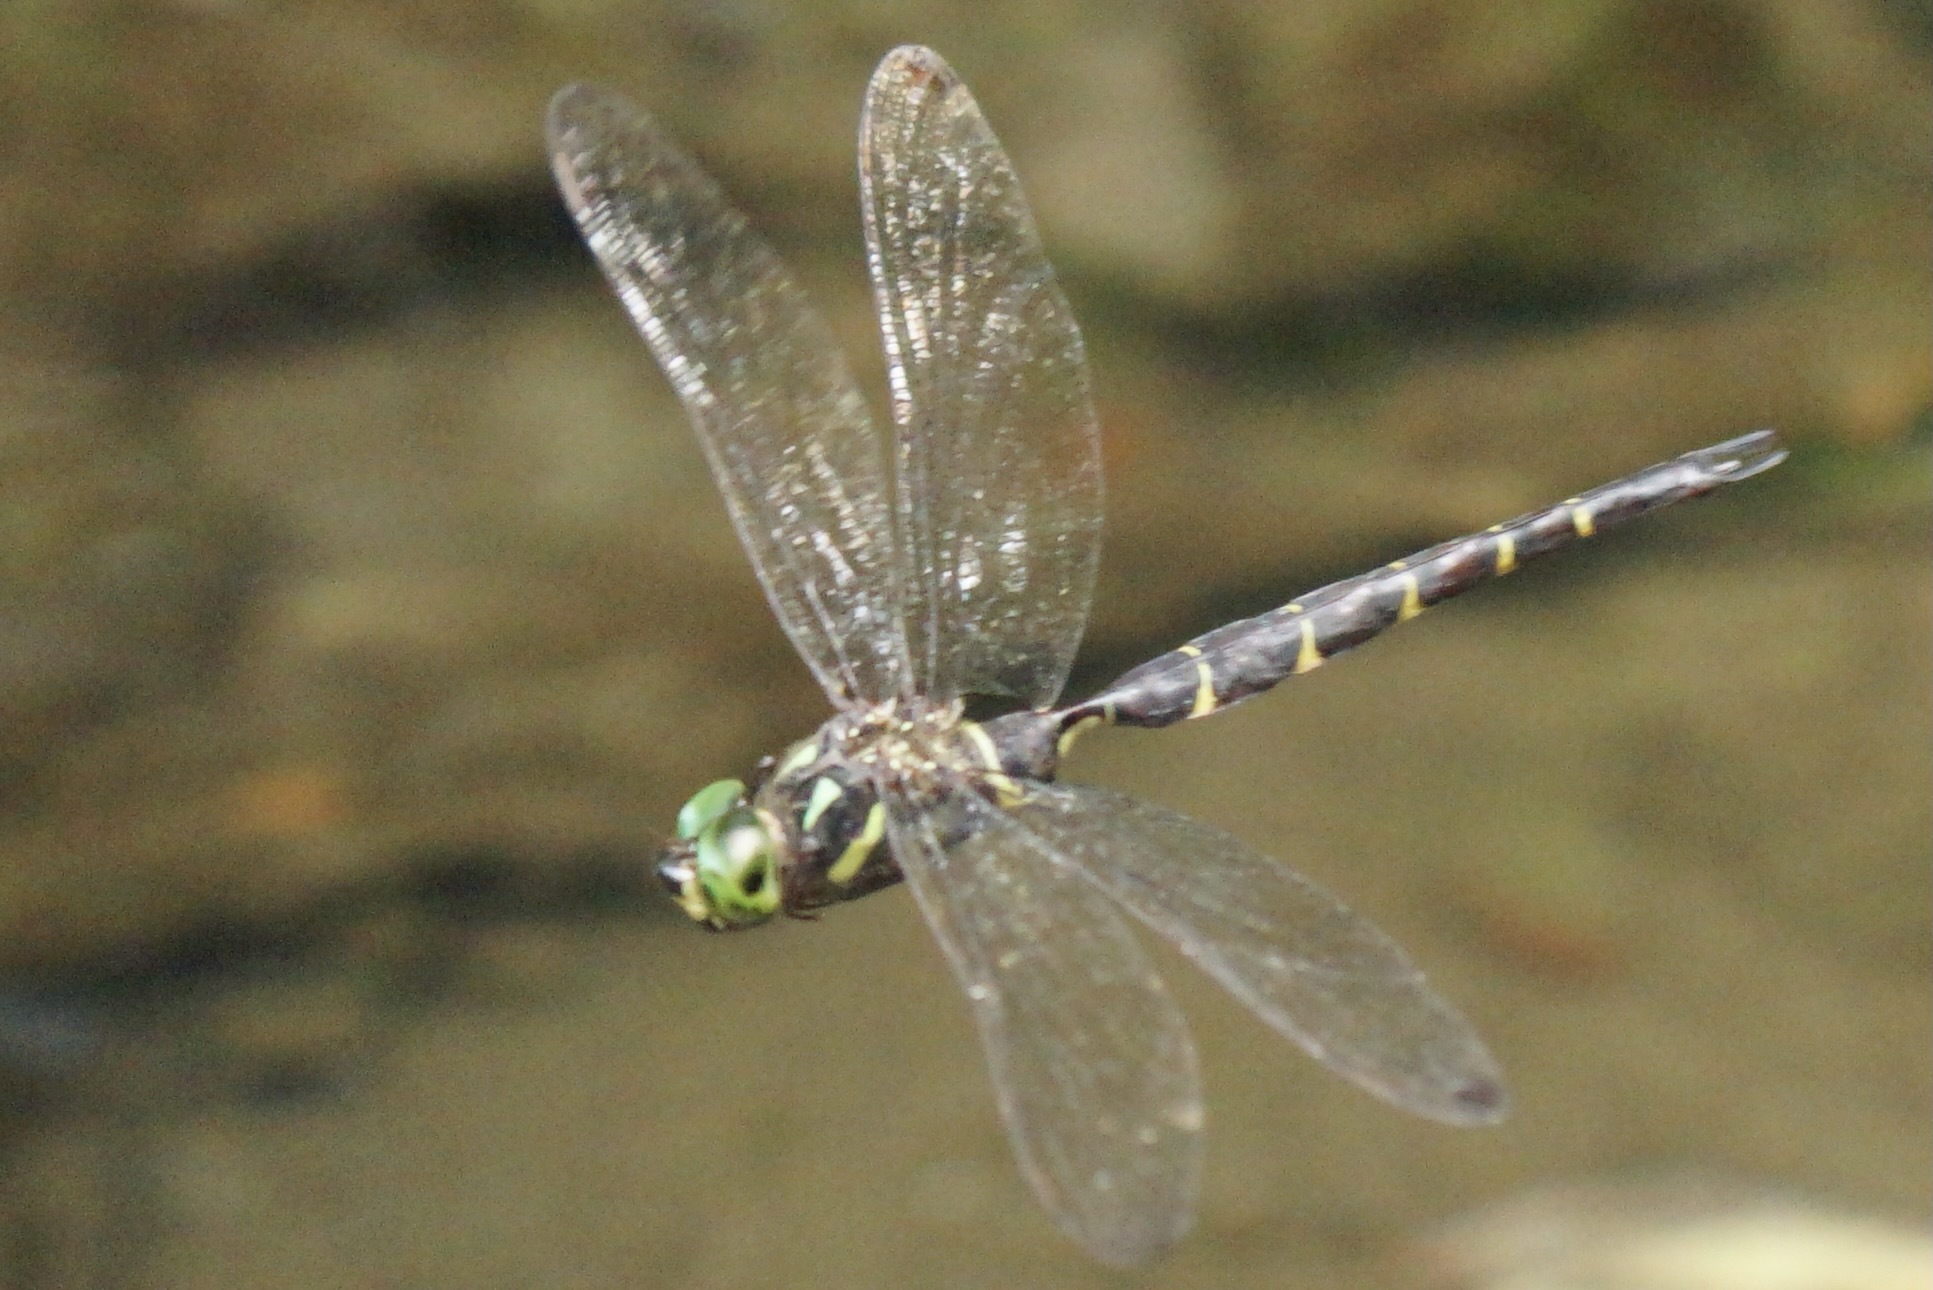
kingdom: Animalia
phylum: Arthropoda
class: Insecta
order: Odonata
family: Aeshnidae
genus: Boyeria
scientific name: Boyeria maclachlani
